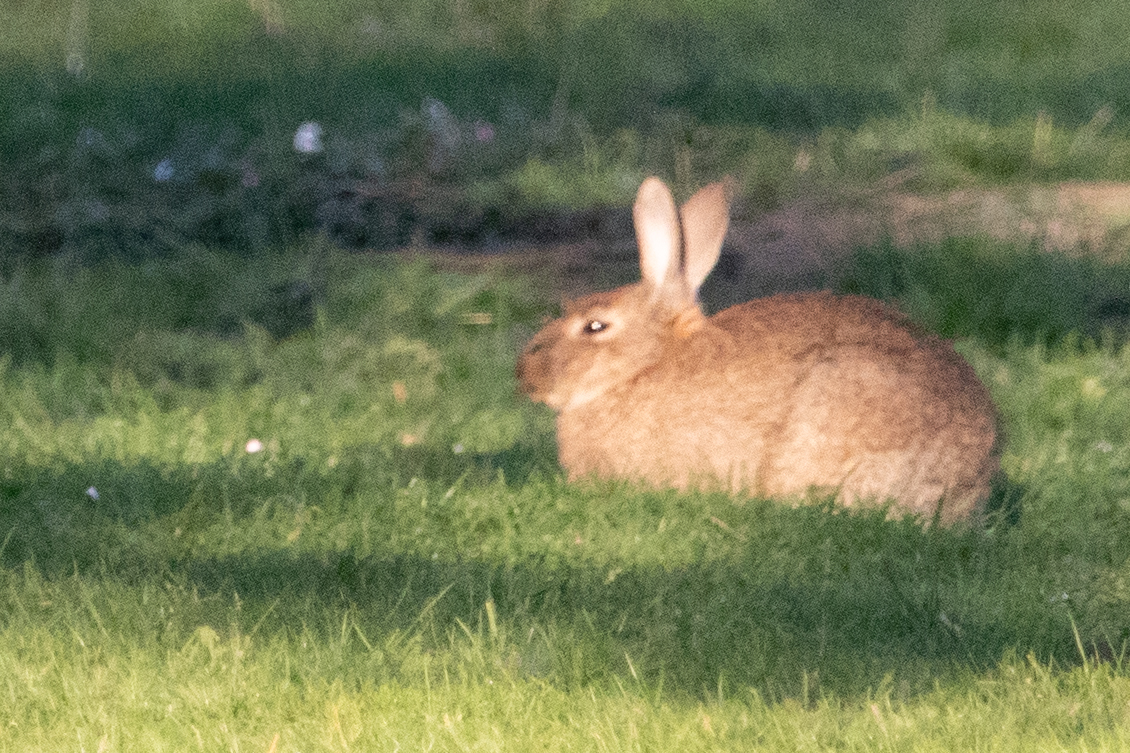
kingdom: Animalia
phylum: Chordata
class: Mammalia
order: Lagomorpha
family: Leporidae
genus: Oryctolagus
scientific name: Oryctolagus cuniculus
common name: European rabbit
